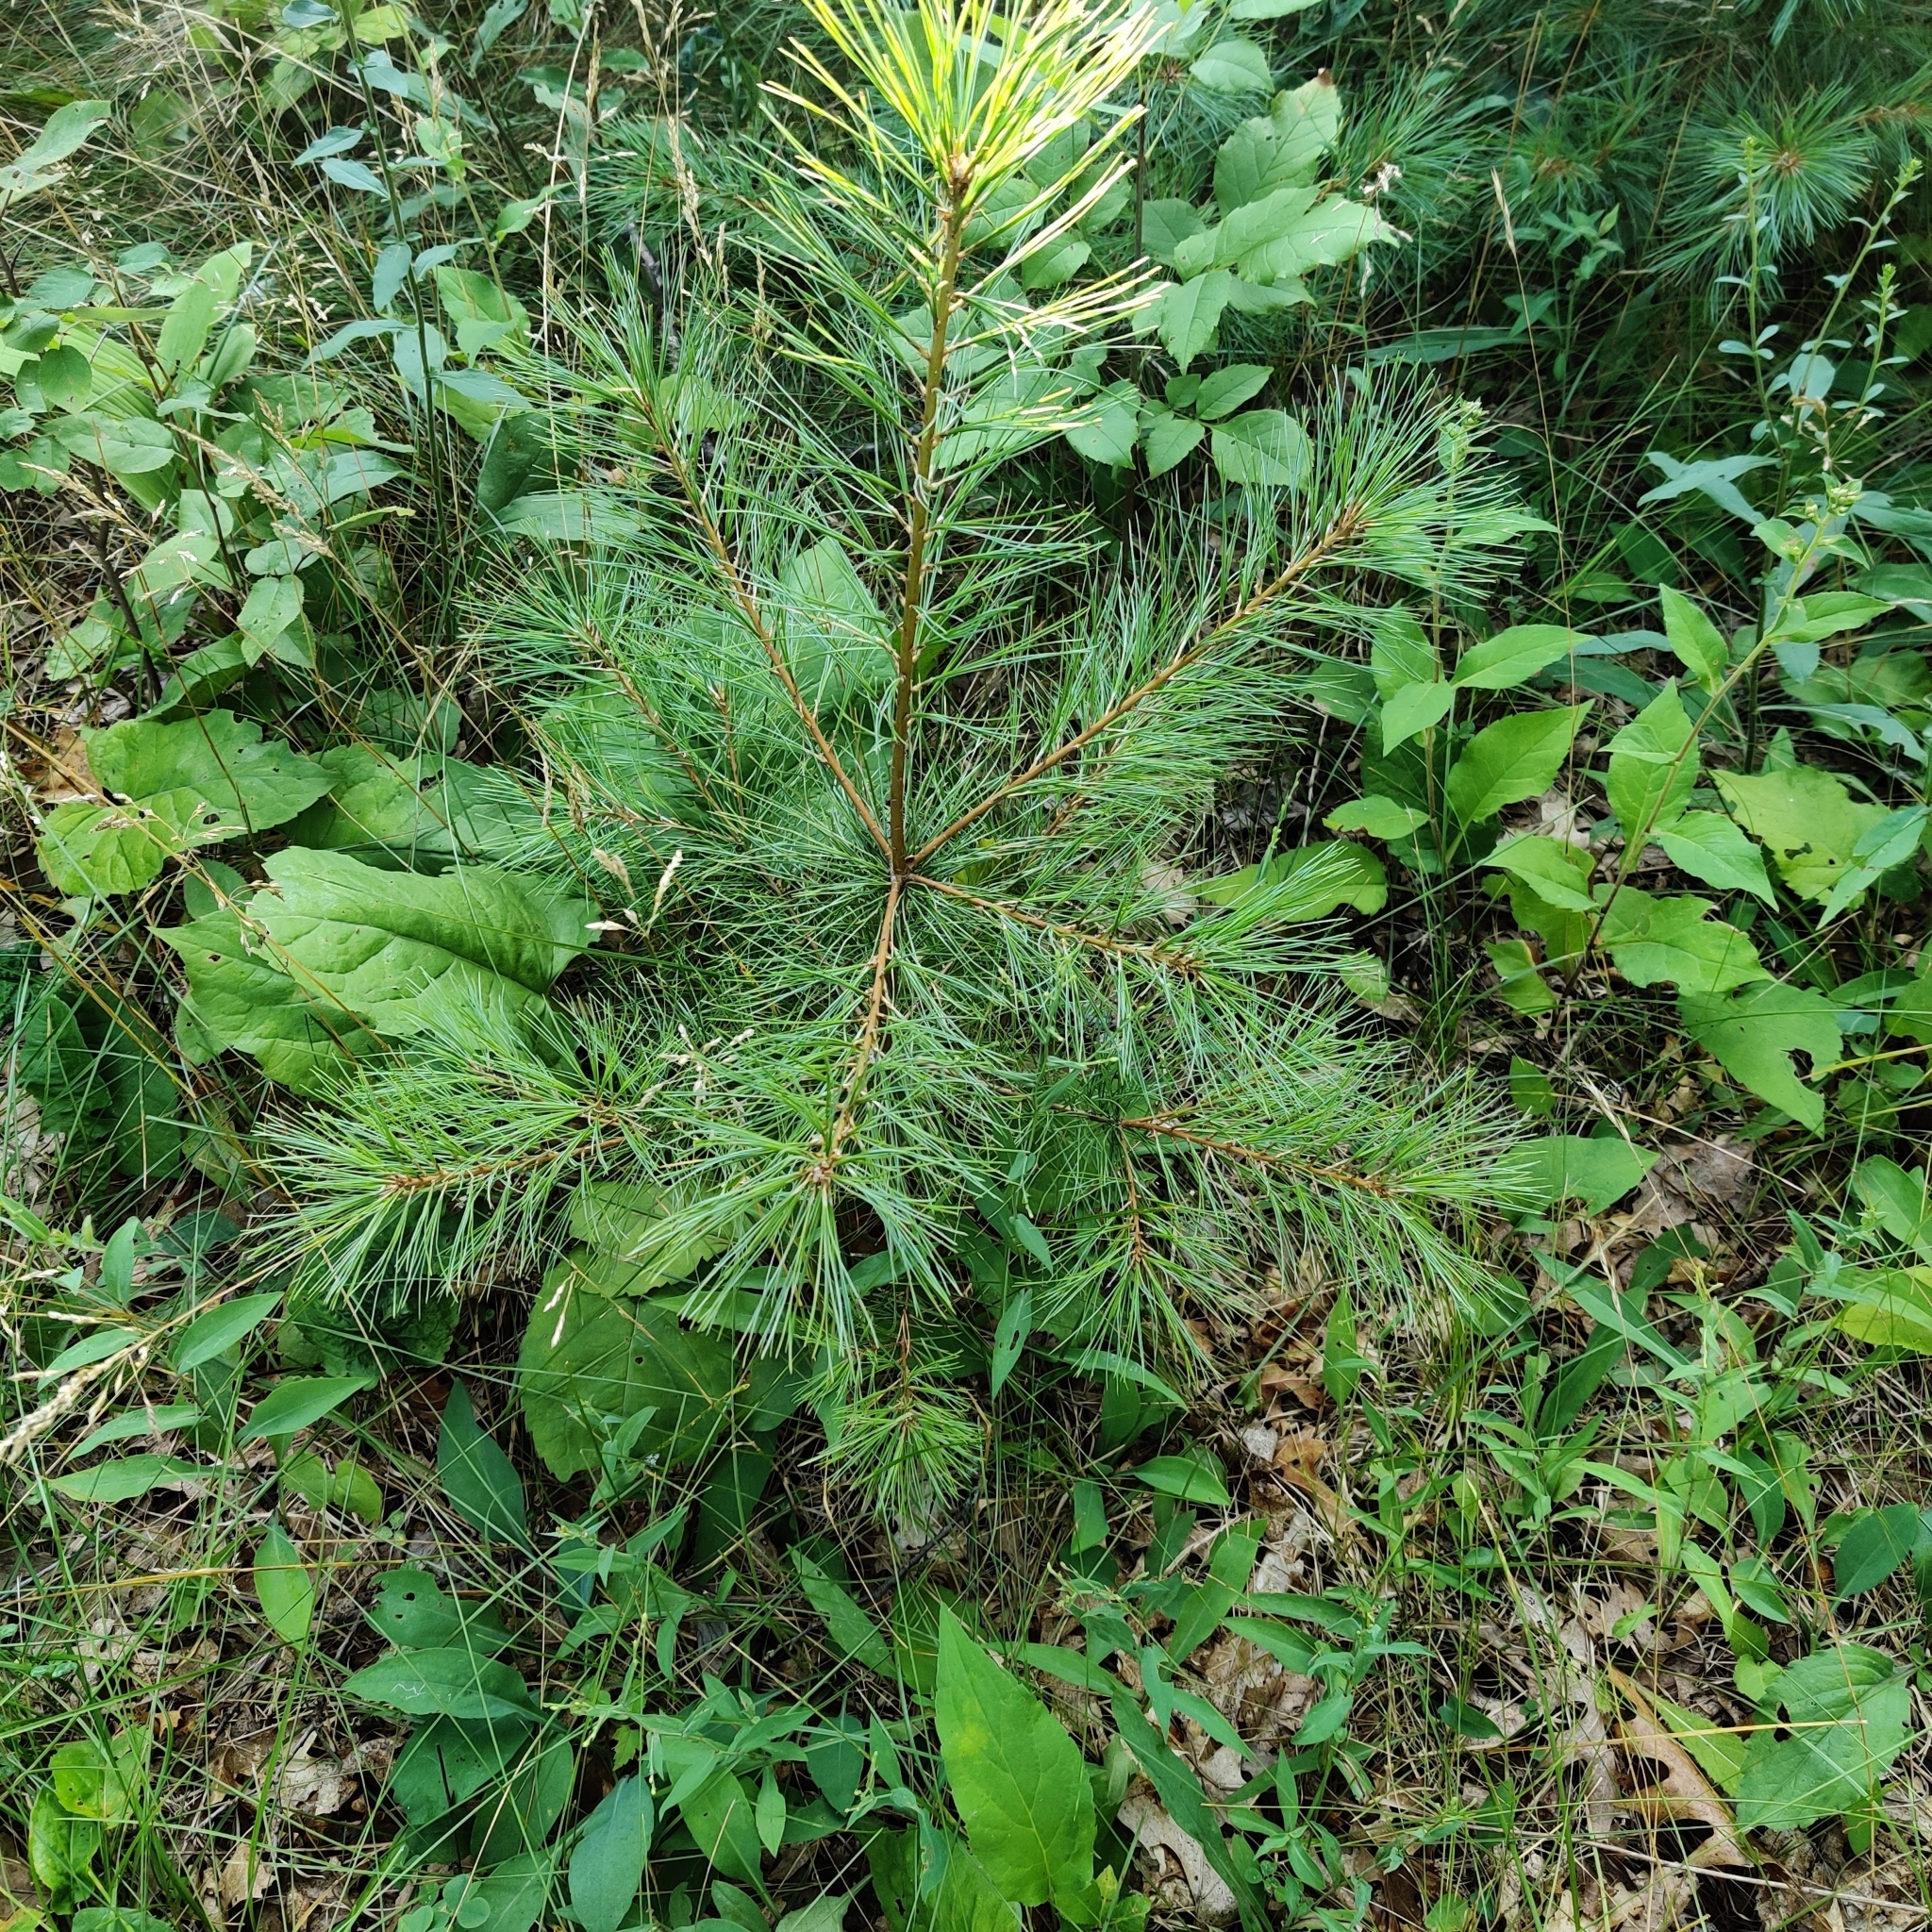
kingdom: Plantae
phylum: Tracheophyta
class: Pinopsida
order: Pinales
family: Pinaceae
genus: Pinus
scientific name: Pinus strobus
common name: Weymouth pine
